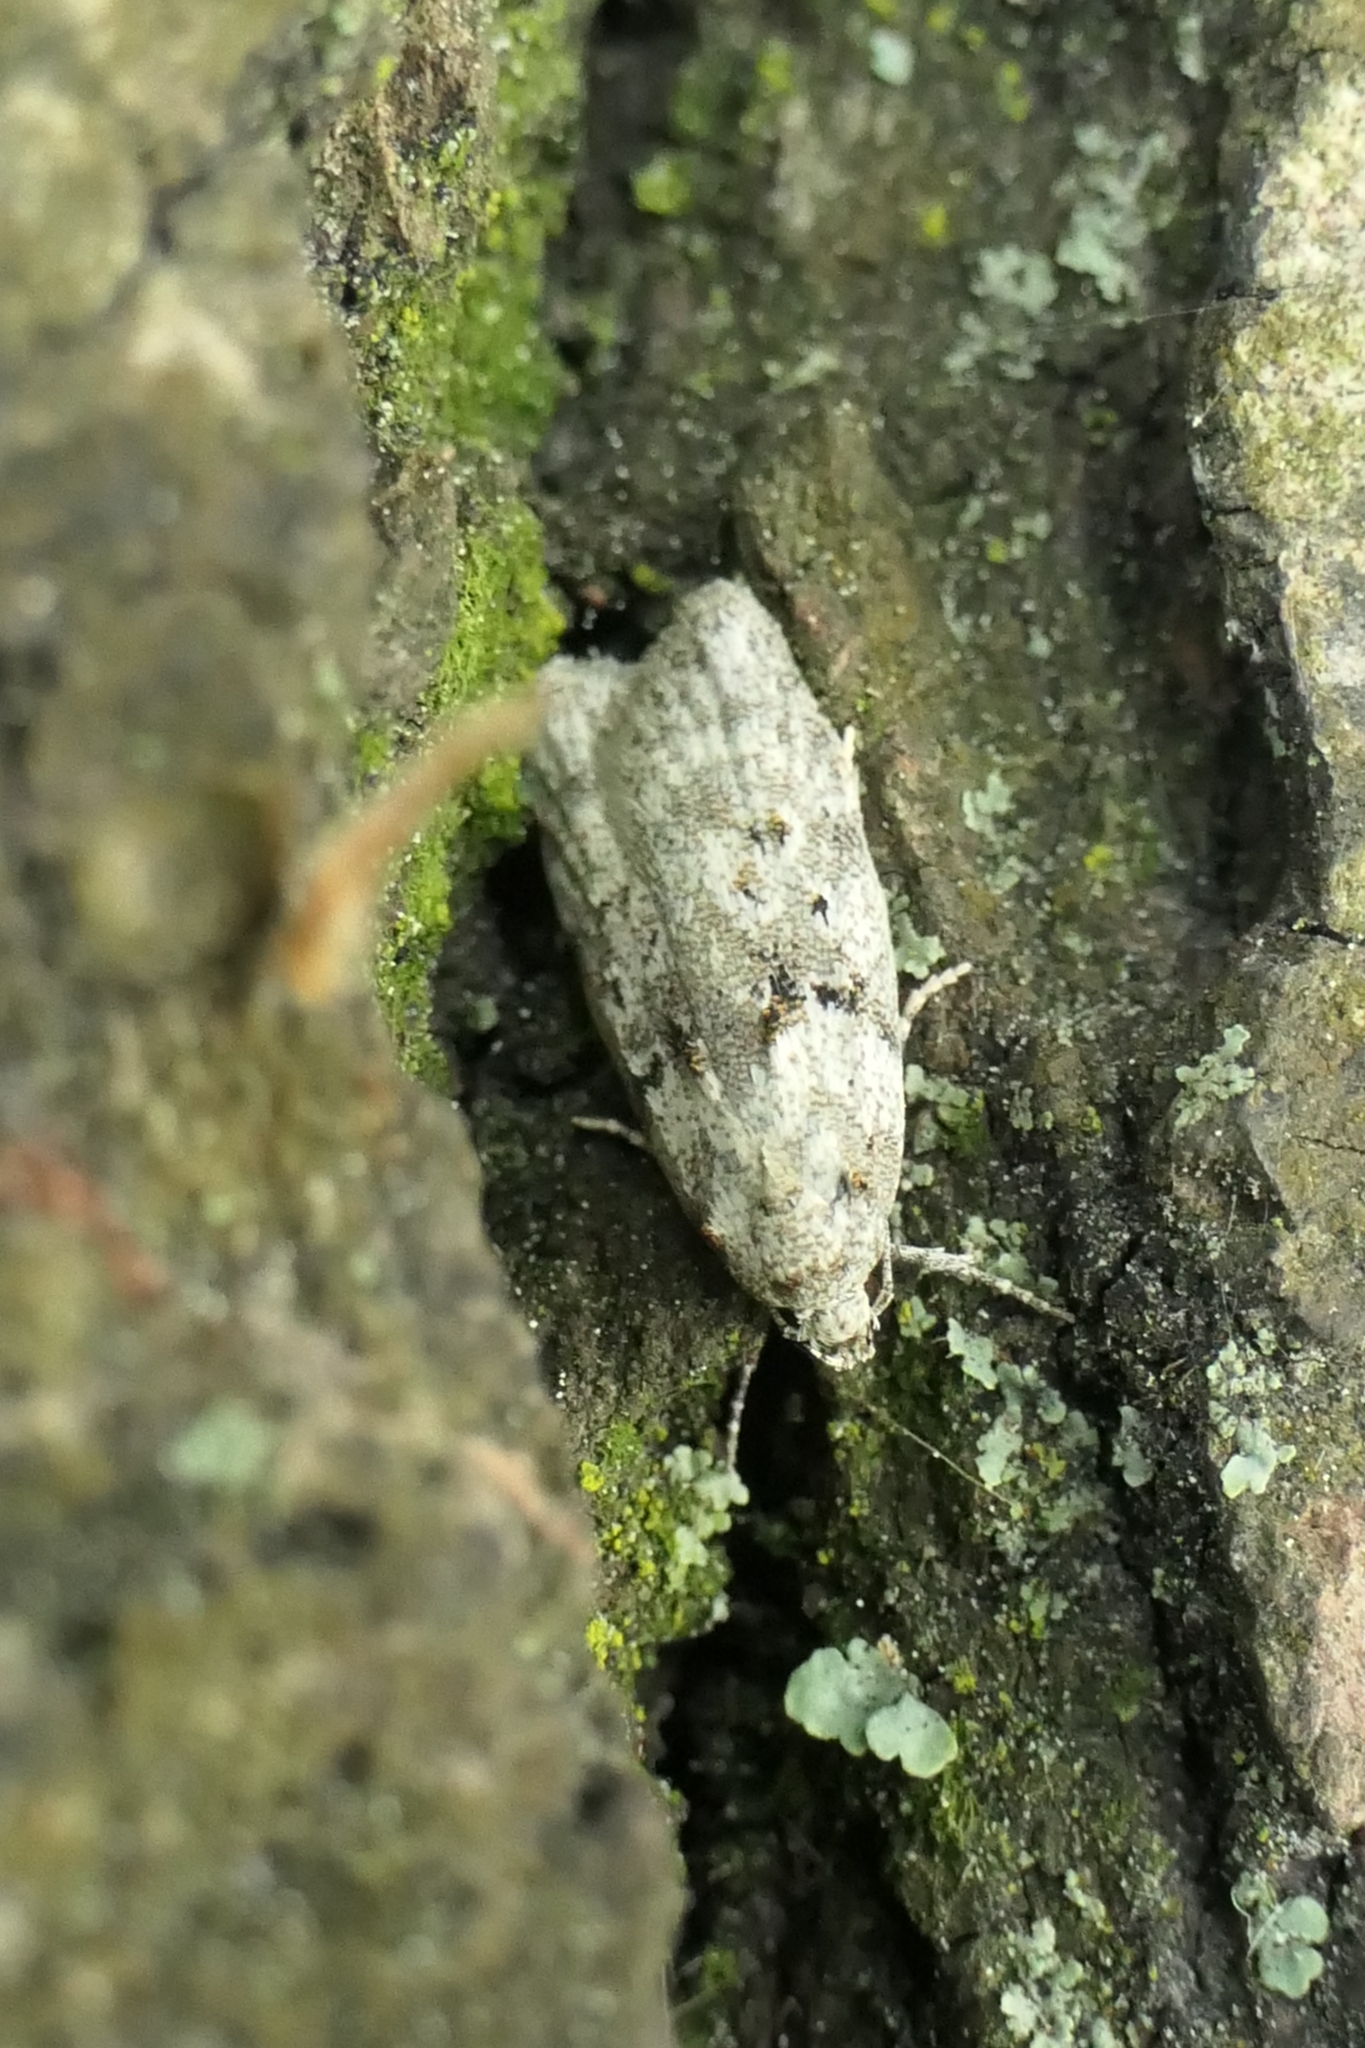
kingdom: Animalia
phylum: Arthropoda
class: Insecta
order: Lepidoptera
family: Oecophoridae
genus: Izatha
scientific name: Izatha convulsella
